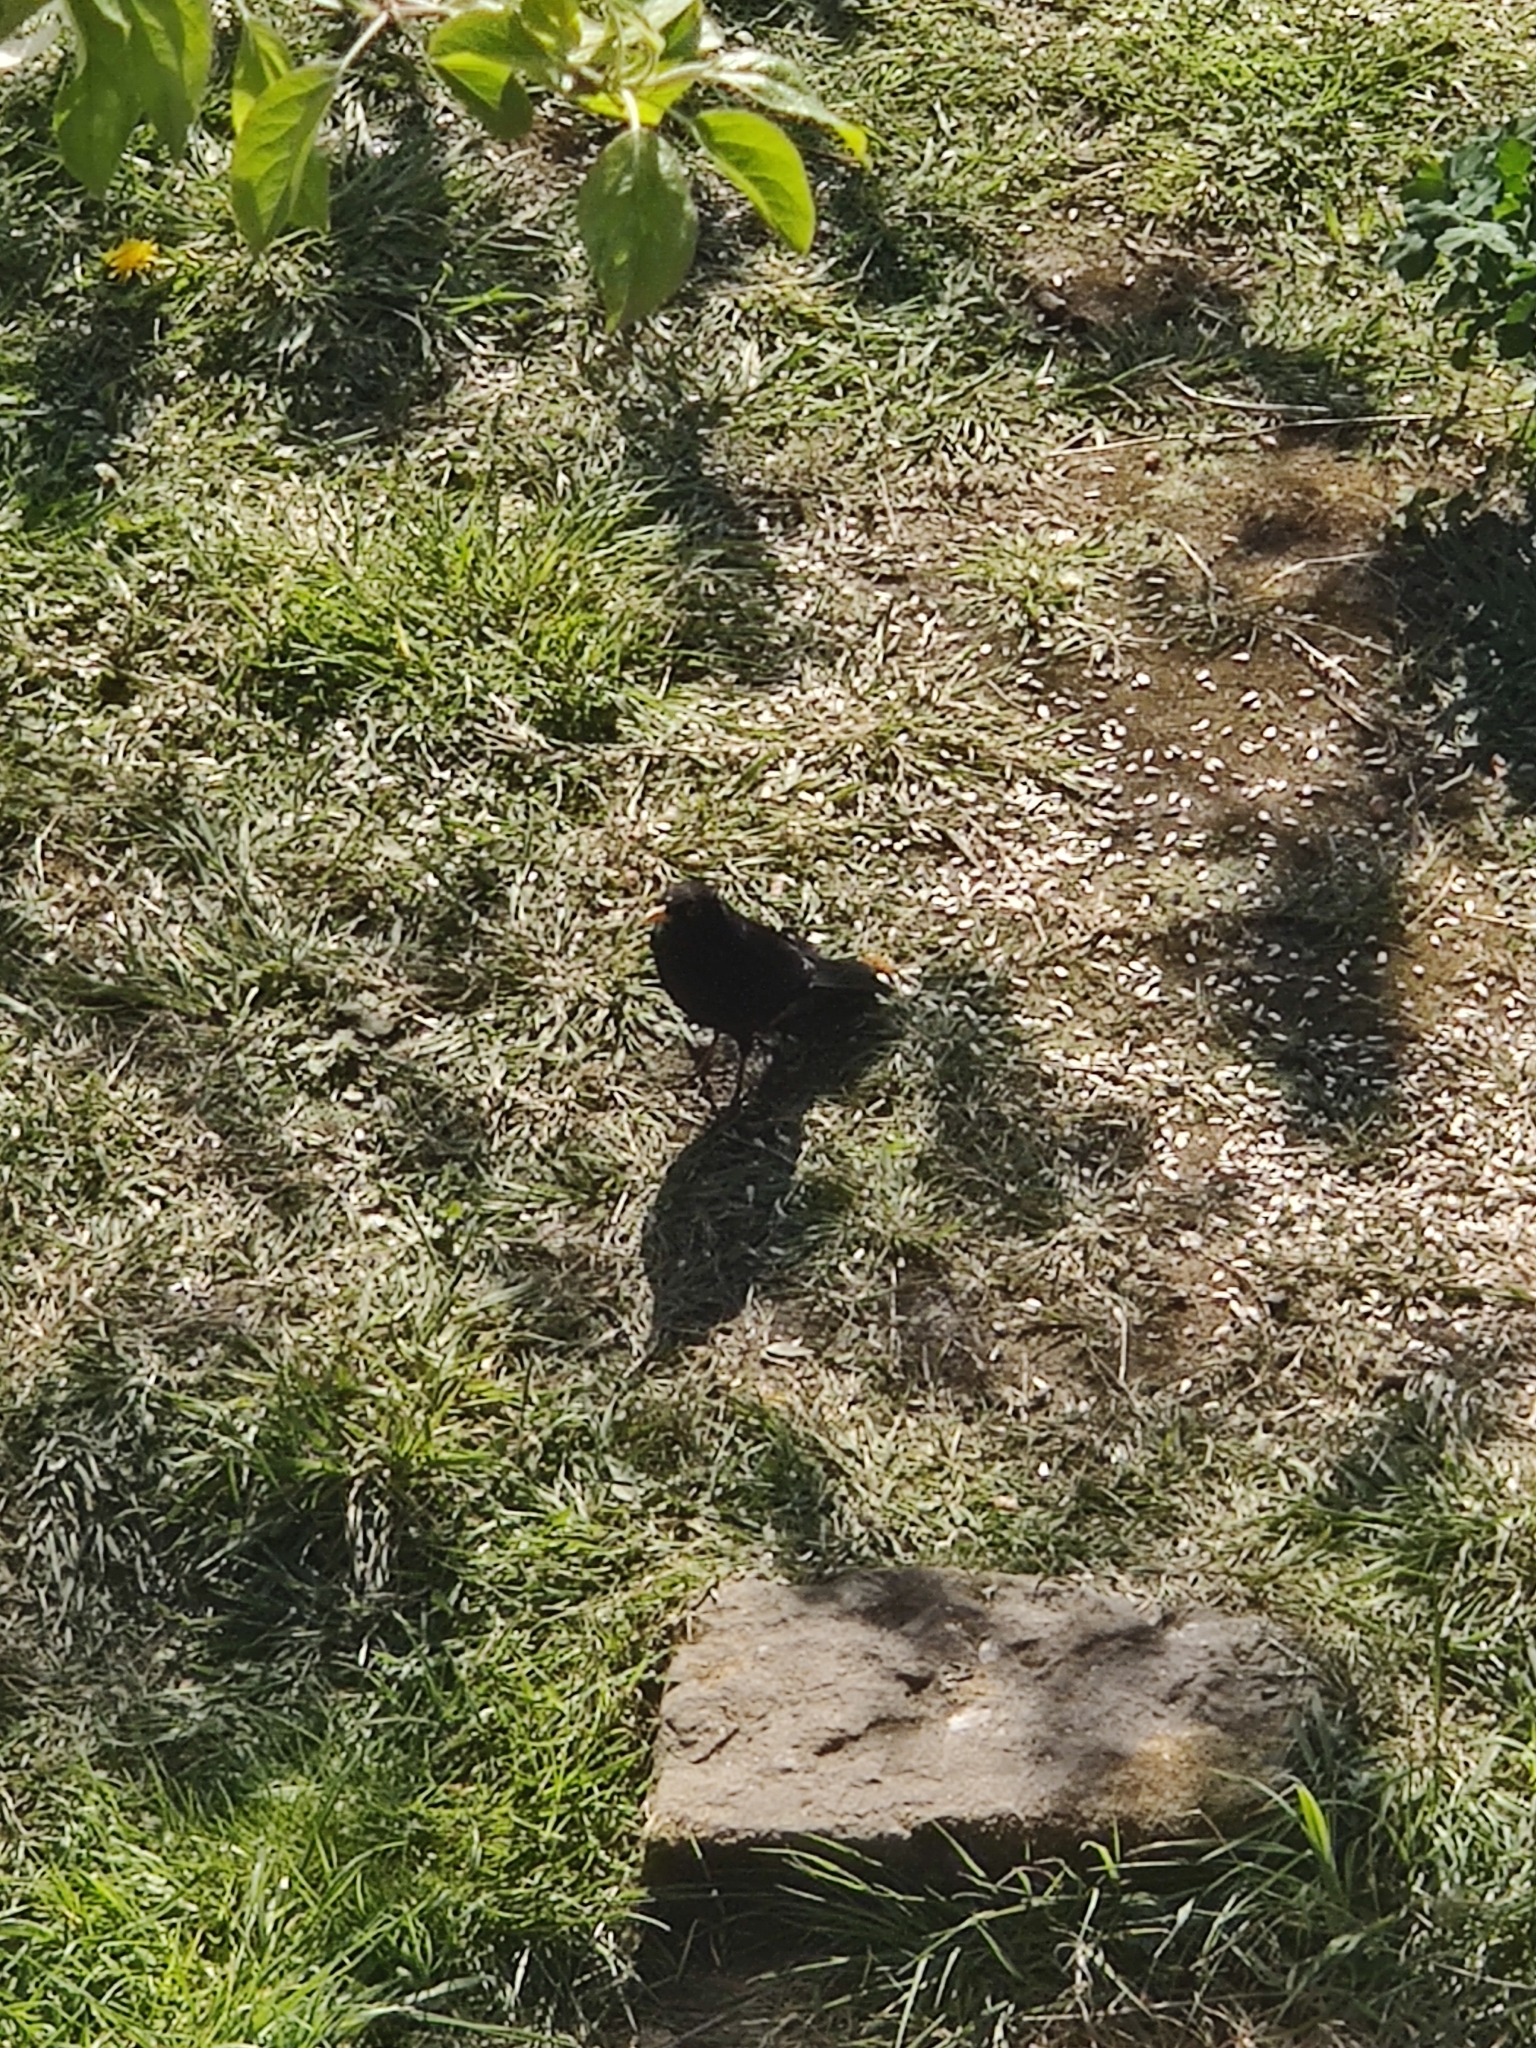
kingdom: Animalia
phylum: Chordata
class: Aves
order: Passeriformes
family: Turdidae
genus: Turdus
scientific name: Turdus merula
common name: Common blackbird
